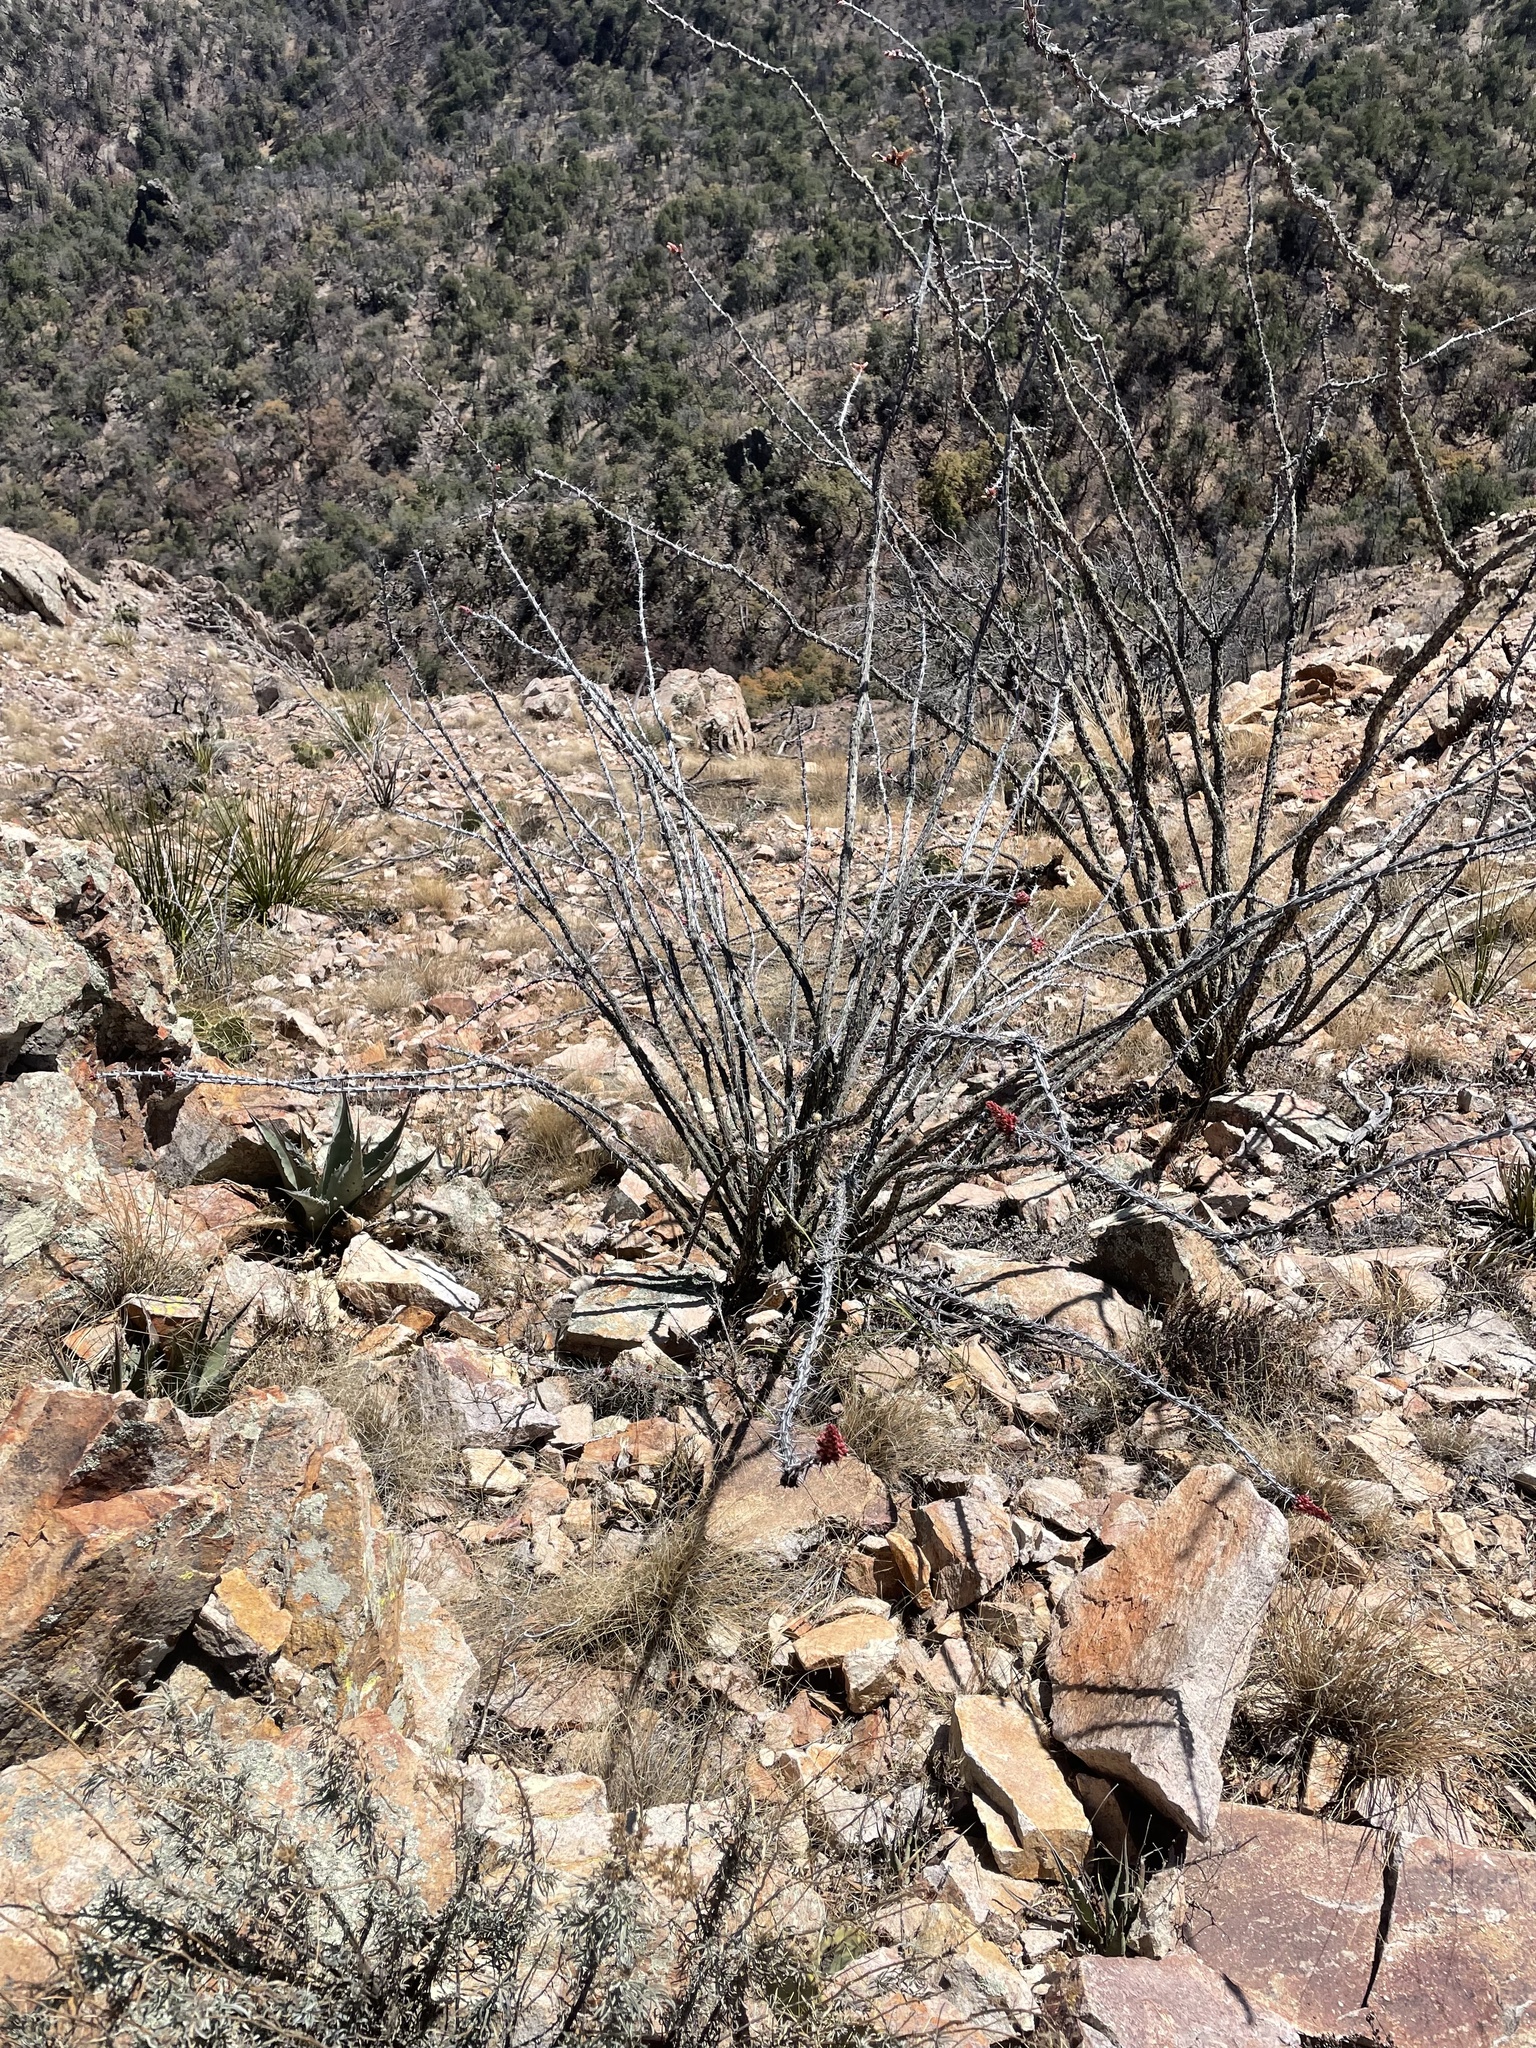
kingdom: Plantae
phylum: Tracheophyta
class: Magnoliopsida
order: Ericales
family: Fouquieriaceae
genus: Fouquieria
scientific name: Fouquieria splendens
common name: Vine-cactus
